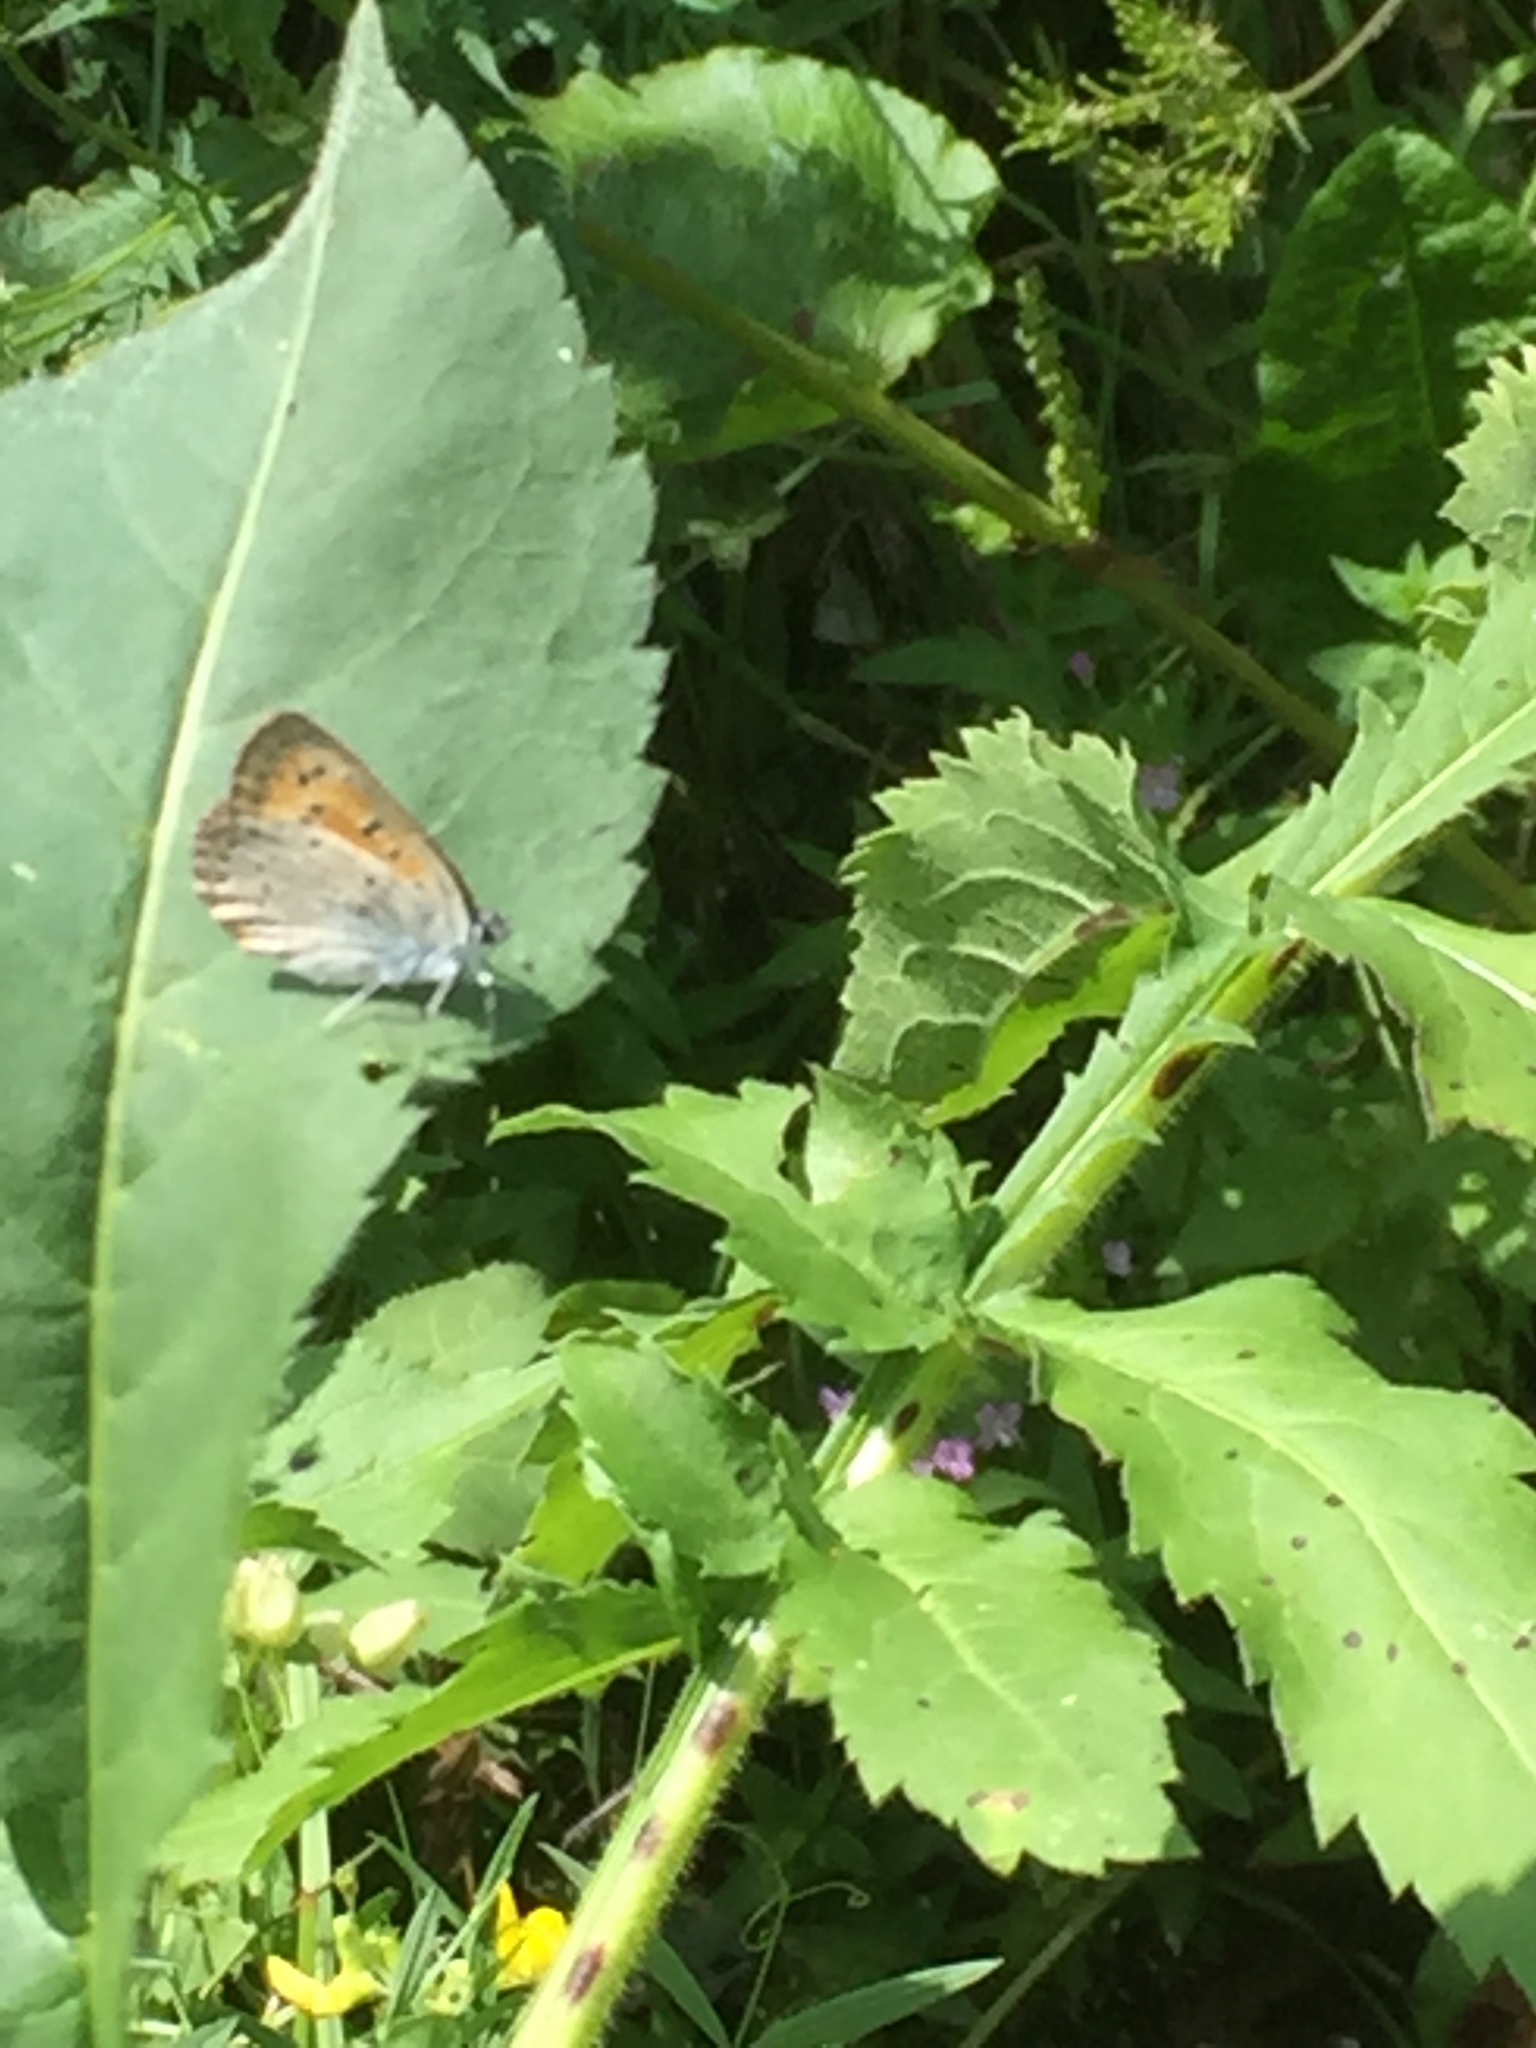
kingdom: Animalia
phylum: Arthropoda
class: Insecta
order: Lepidoptera
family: Lycaenidae
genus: Lycaena
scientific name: Lycaena dispar
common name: Large copper
